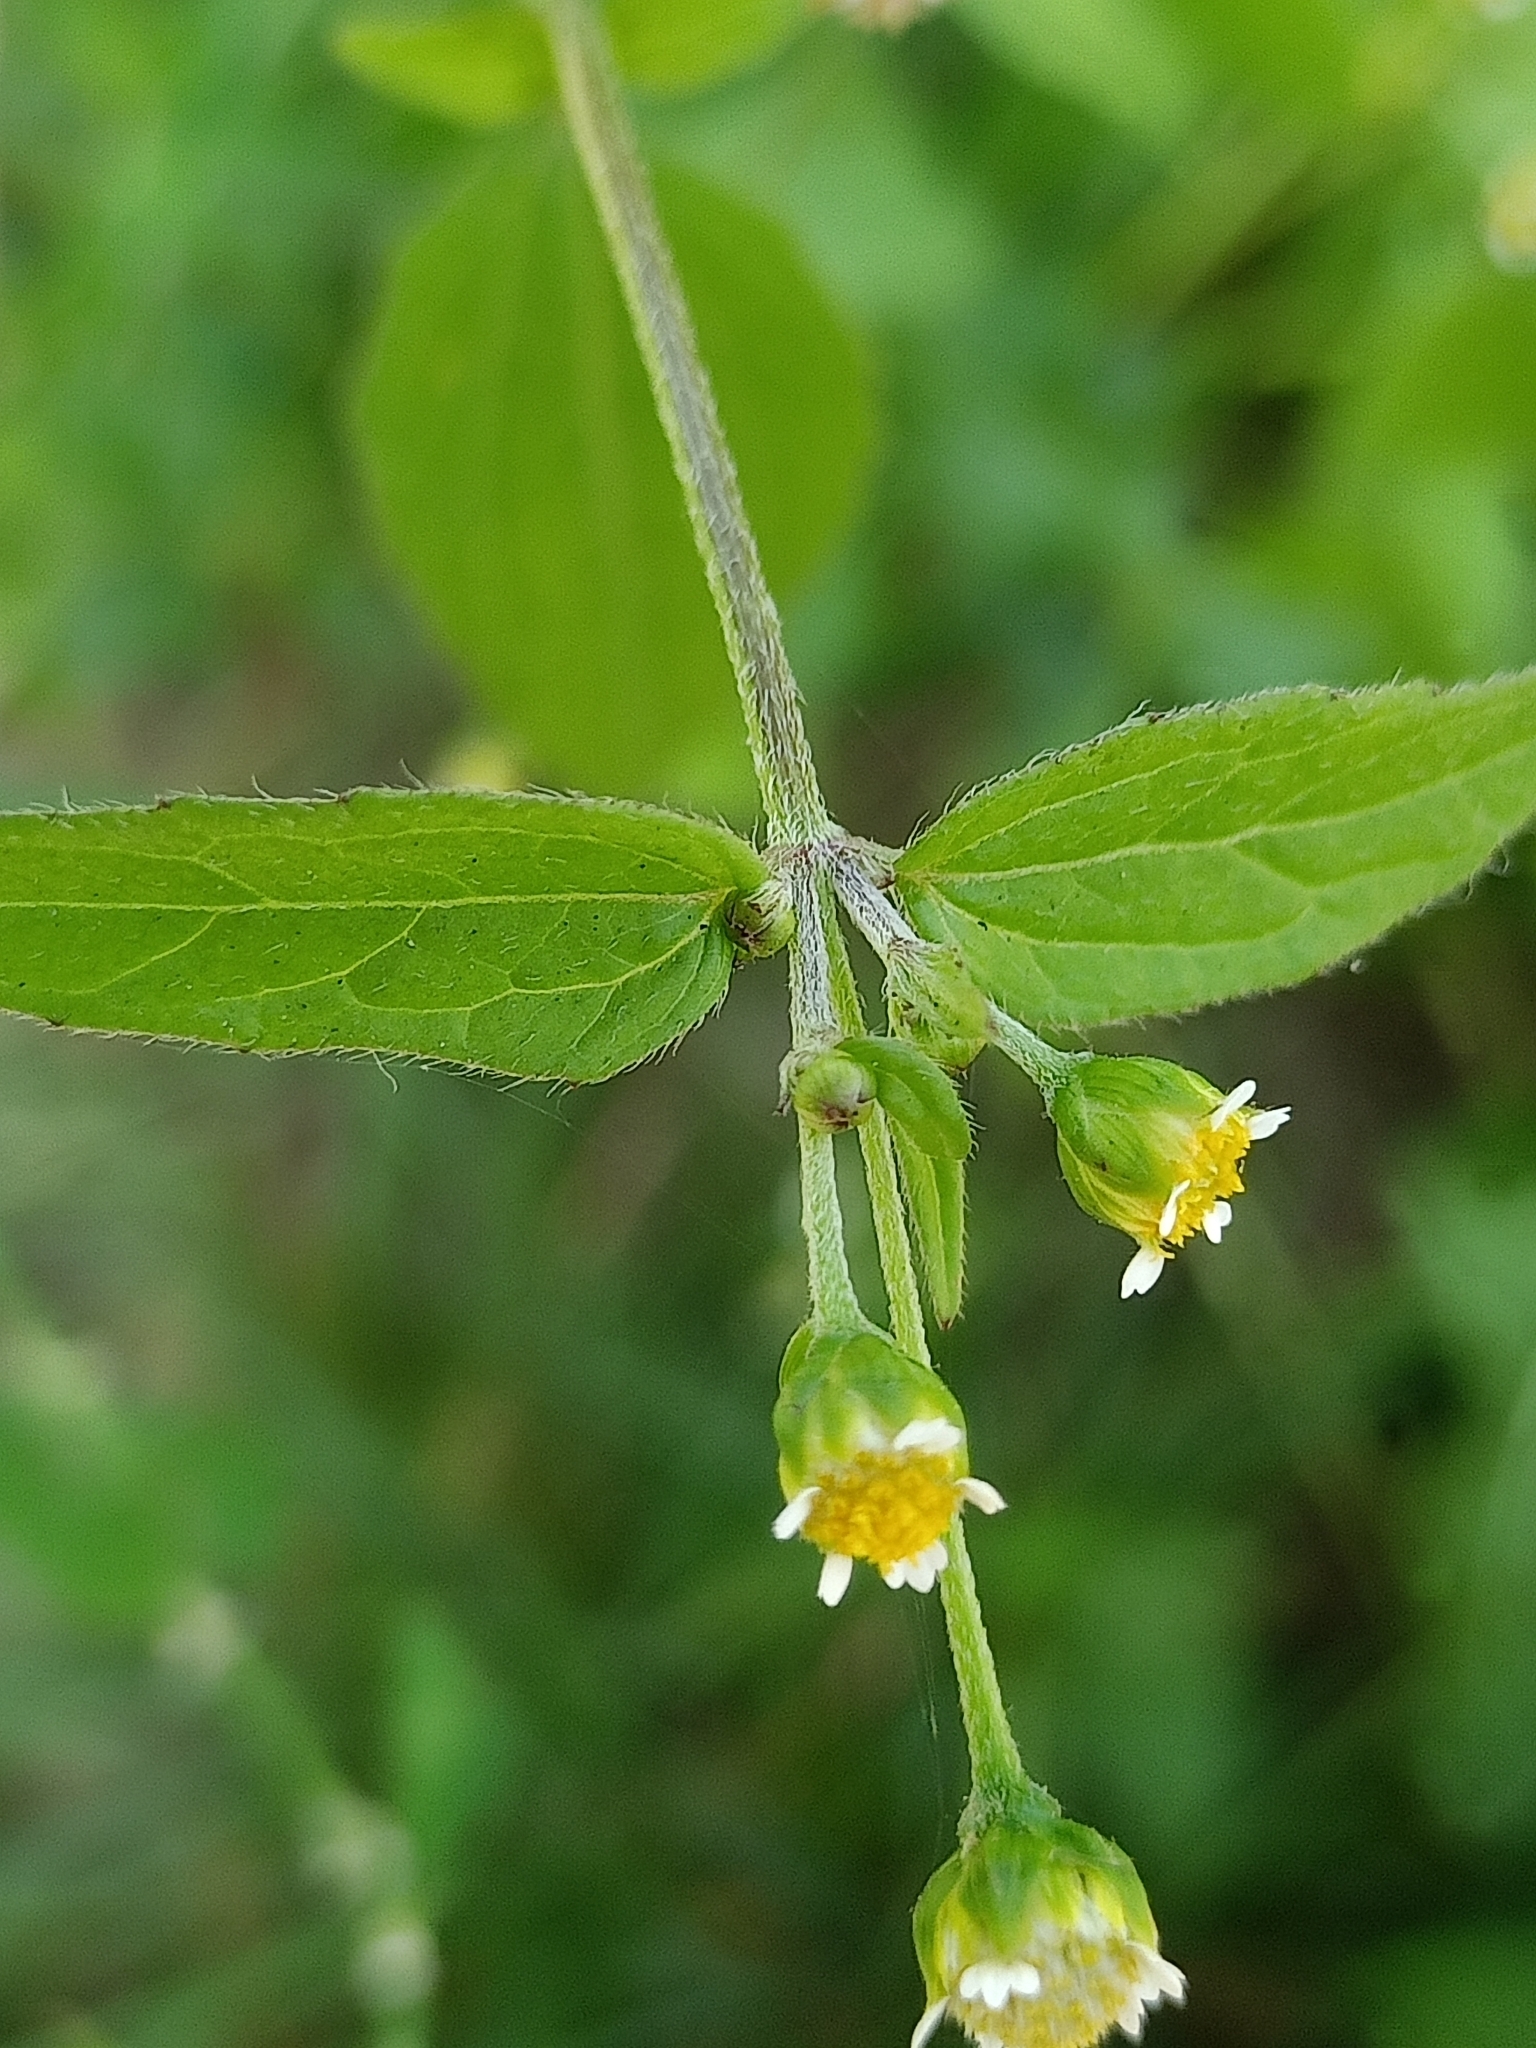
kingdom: Plantae
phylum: Tracheophyta
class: Magnoliopsida
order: Asterales
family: Asteraceae
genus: Galinsoga
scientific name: Galinsoga parviflora
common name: Gallant soldier
